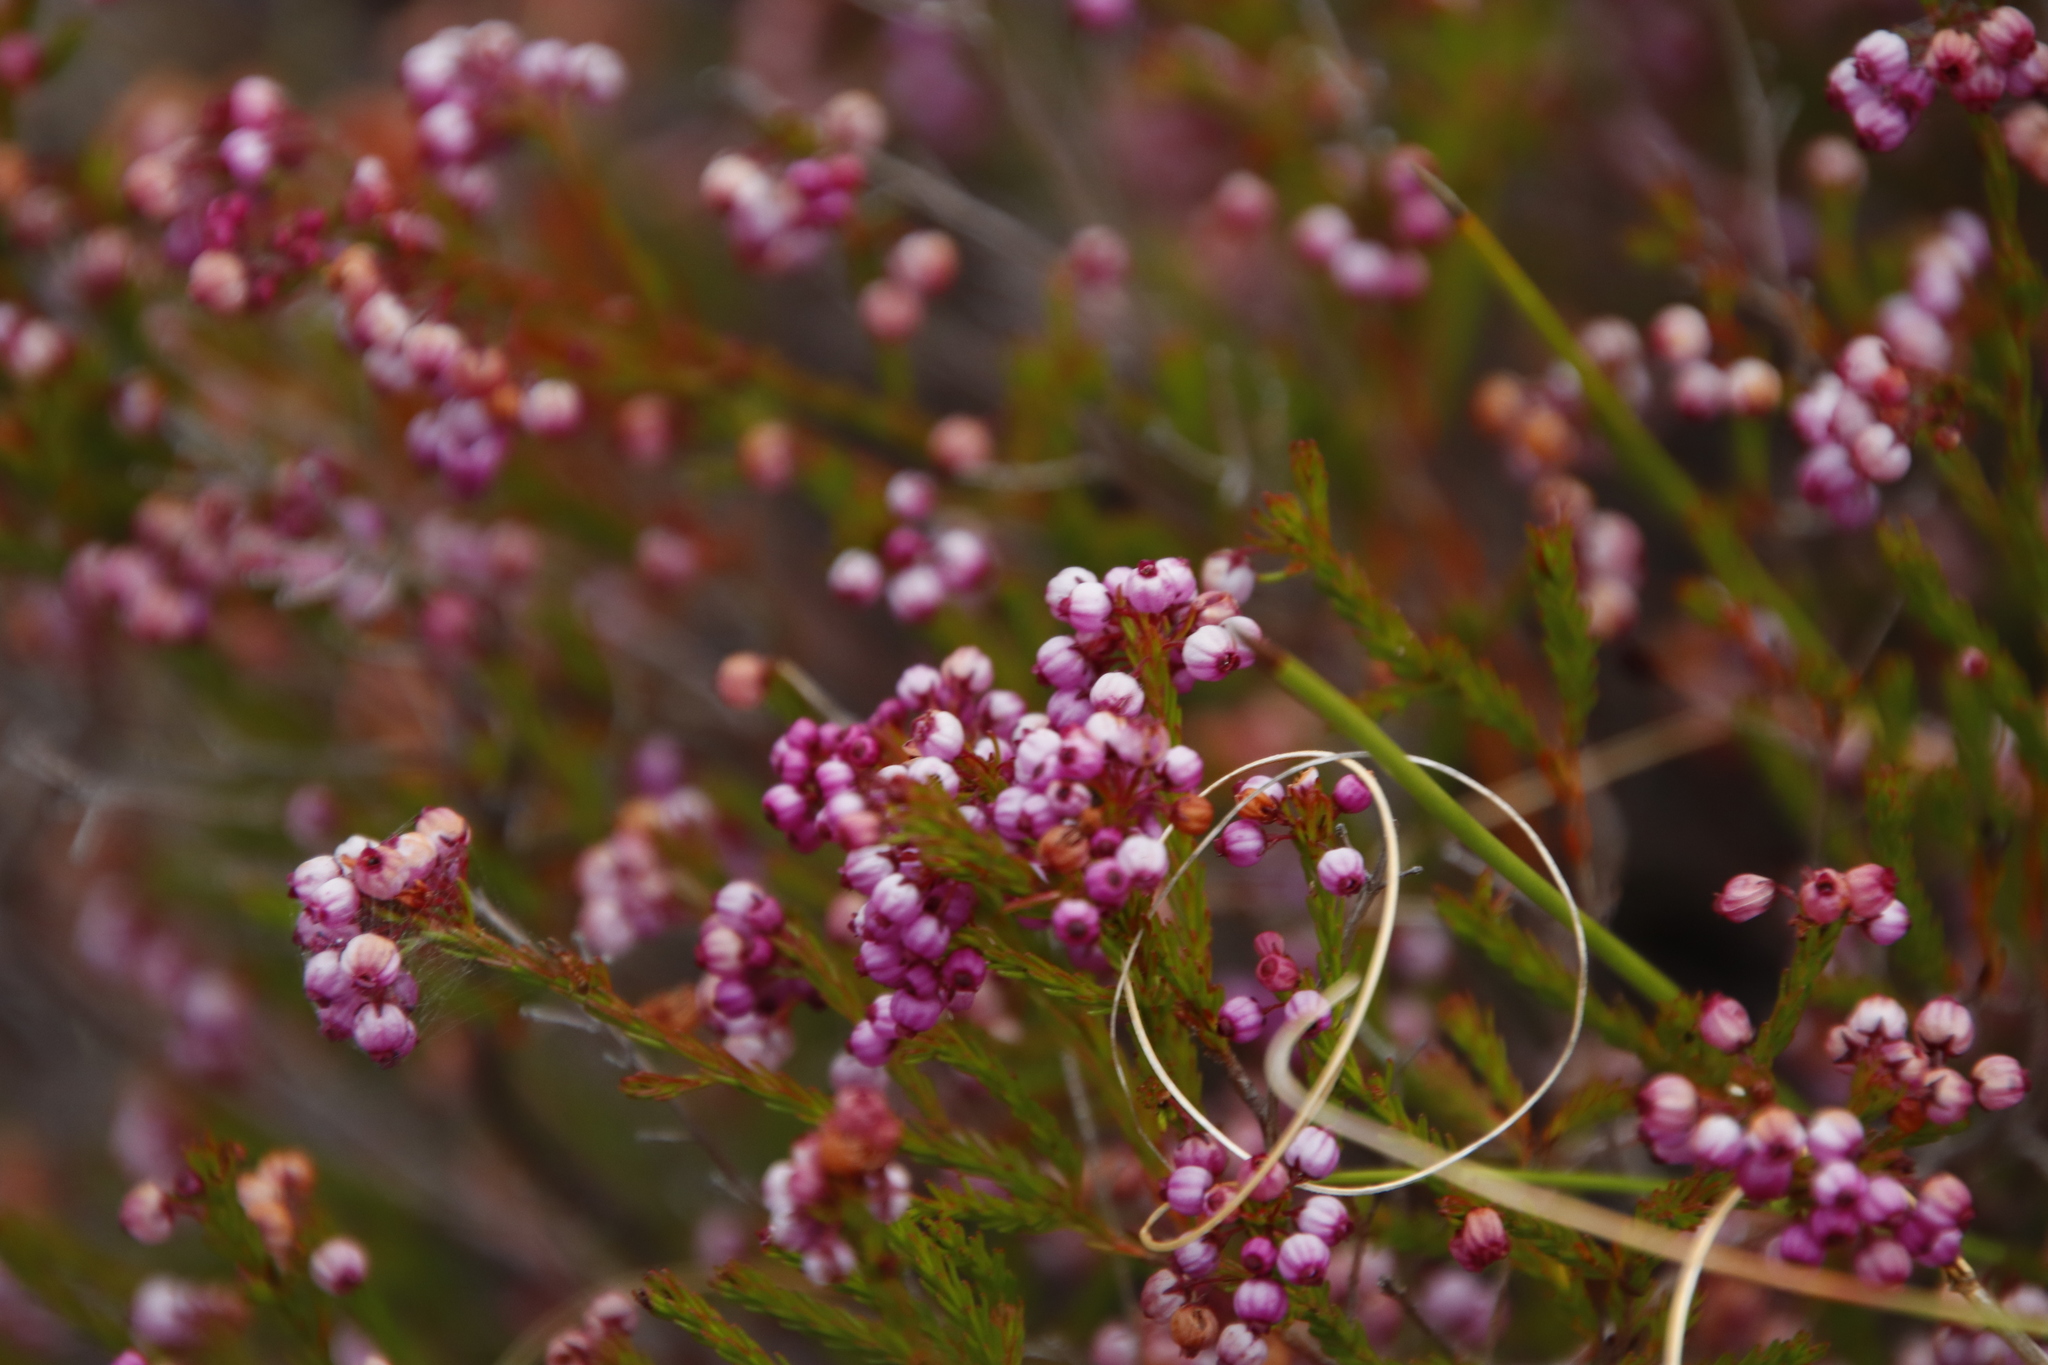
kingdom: Plantae
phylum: Tracheophyta
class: Magnoliopsida
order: Ericales
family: Ericaceae
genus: Erica
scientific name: Erica multumbellifera
